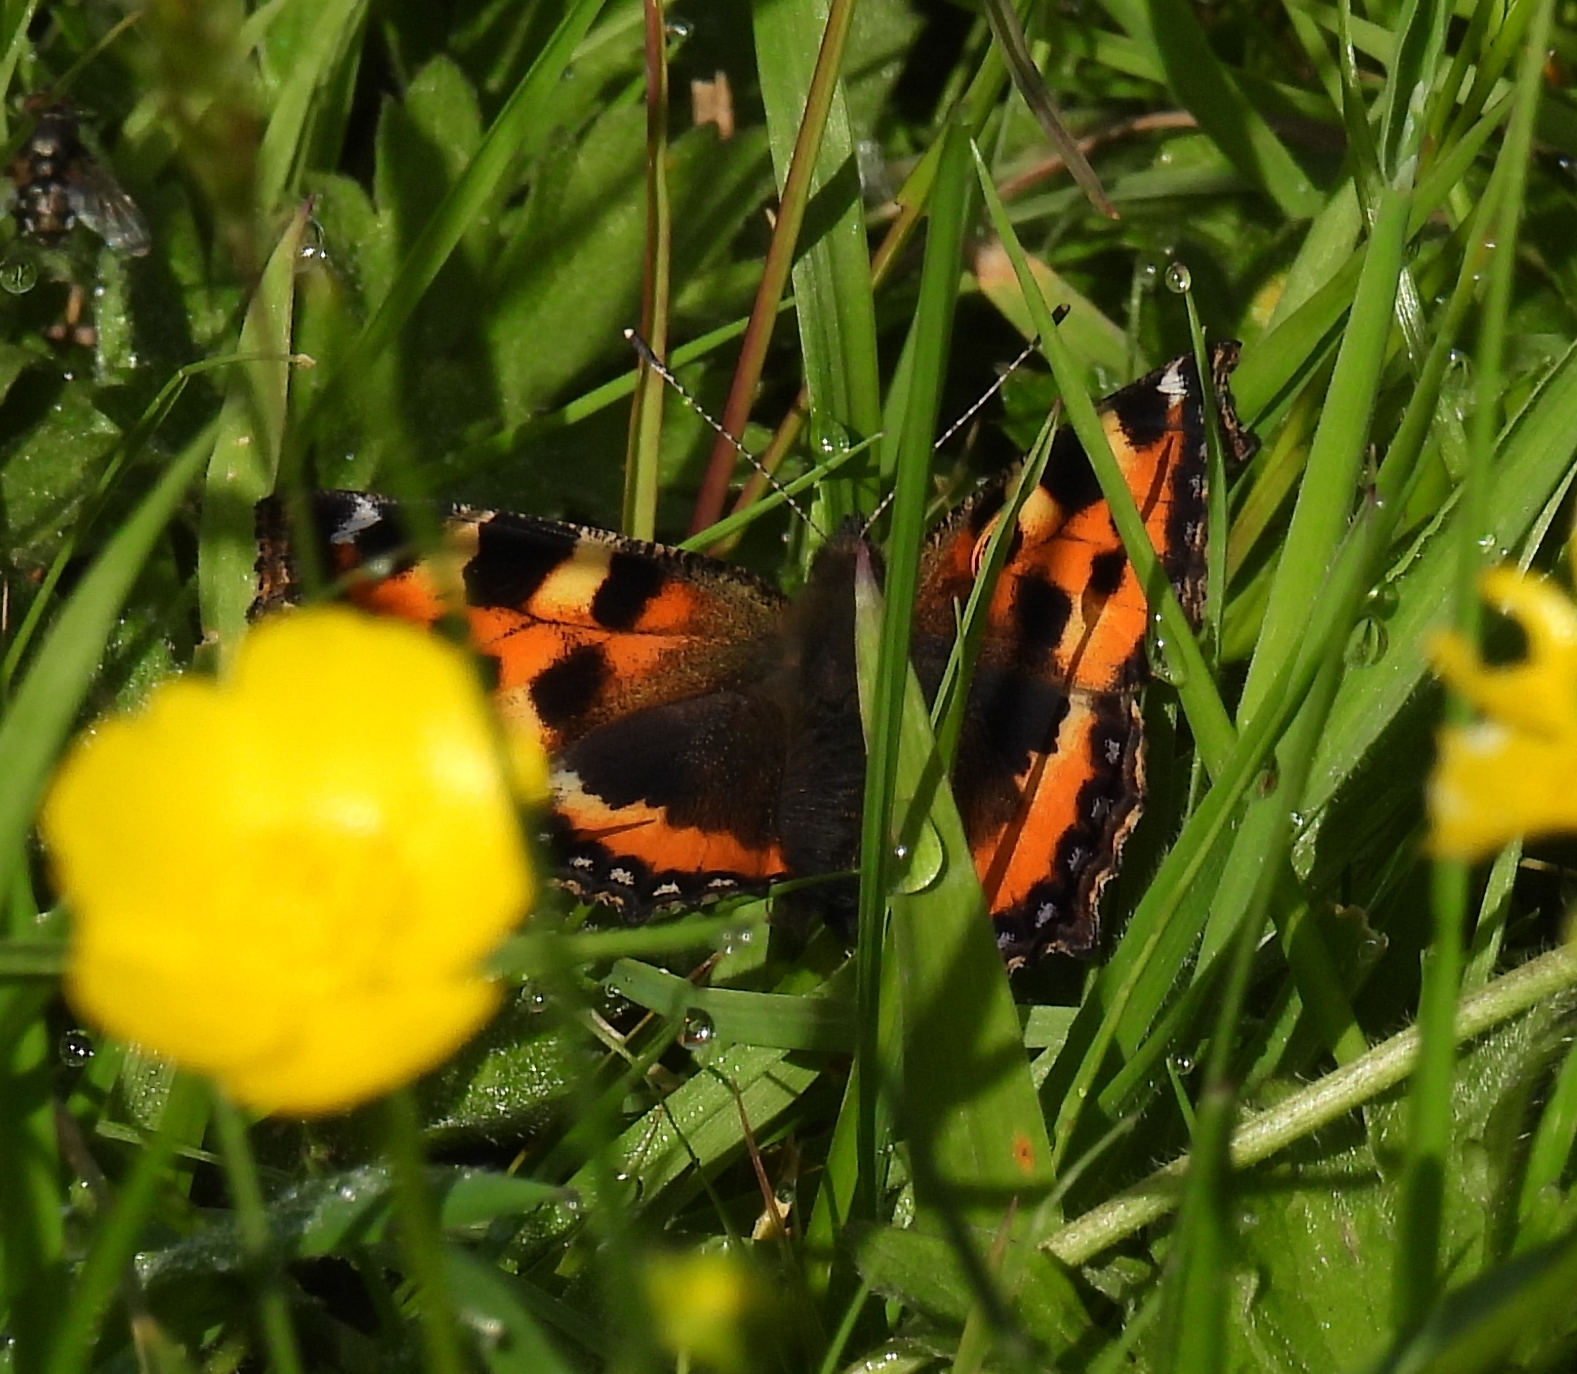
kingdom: Animalia
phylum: Arthropoda
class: Insecta
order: Lepidoptera
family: Nymphalidae
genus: Aglais
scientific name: Aglais urticae
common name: Small tortoiseshell
